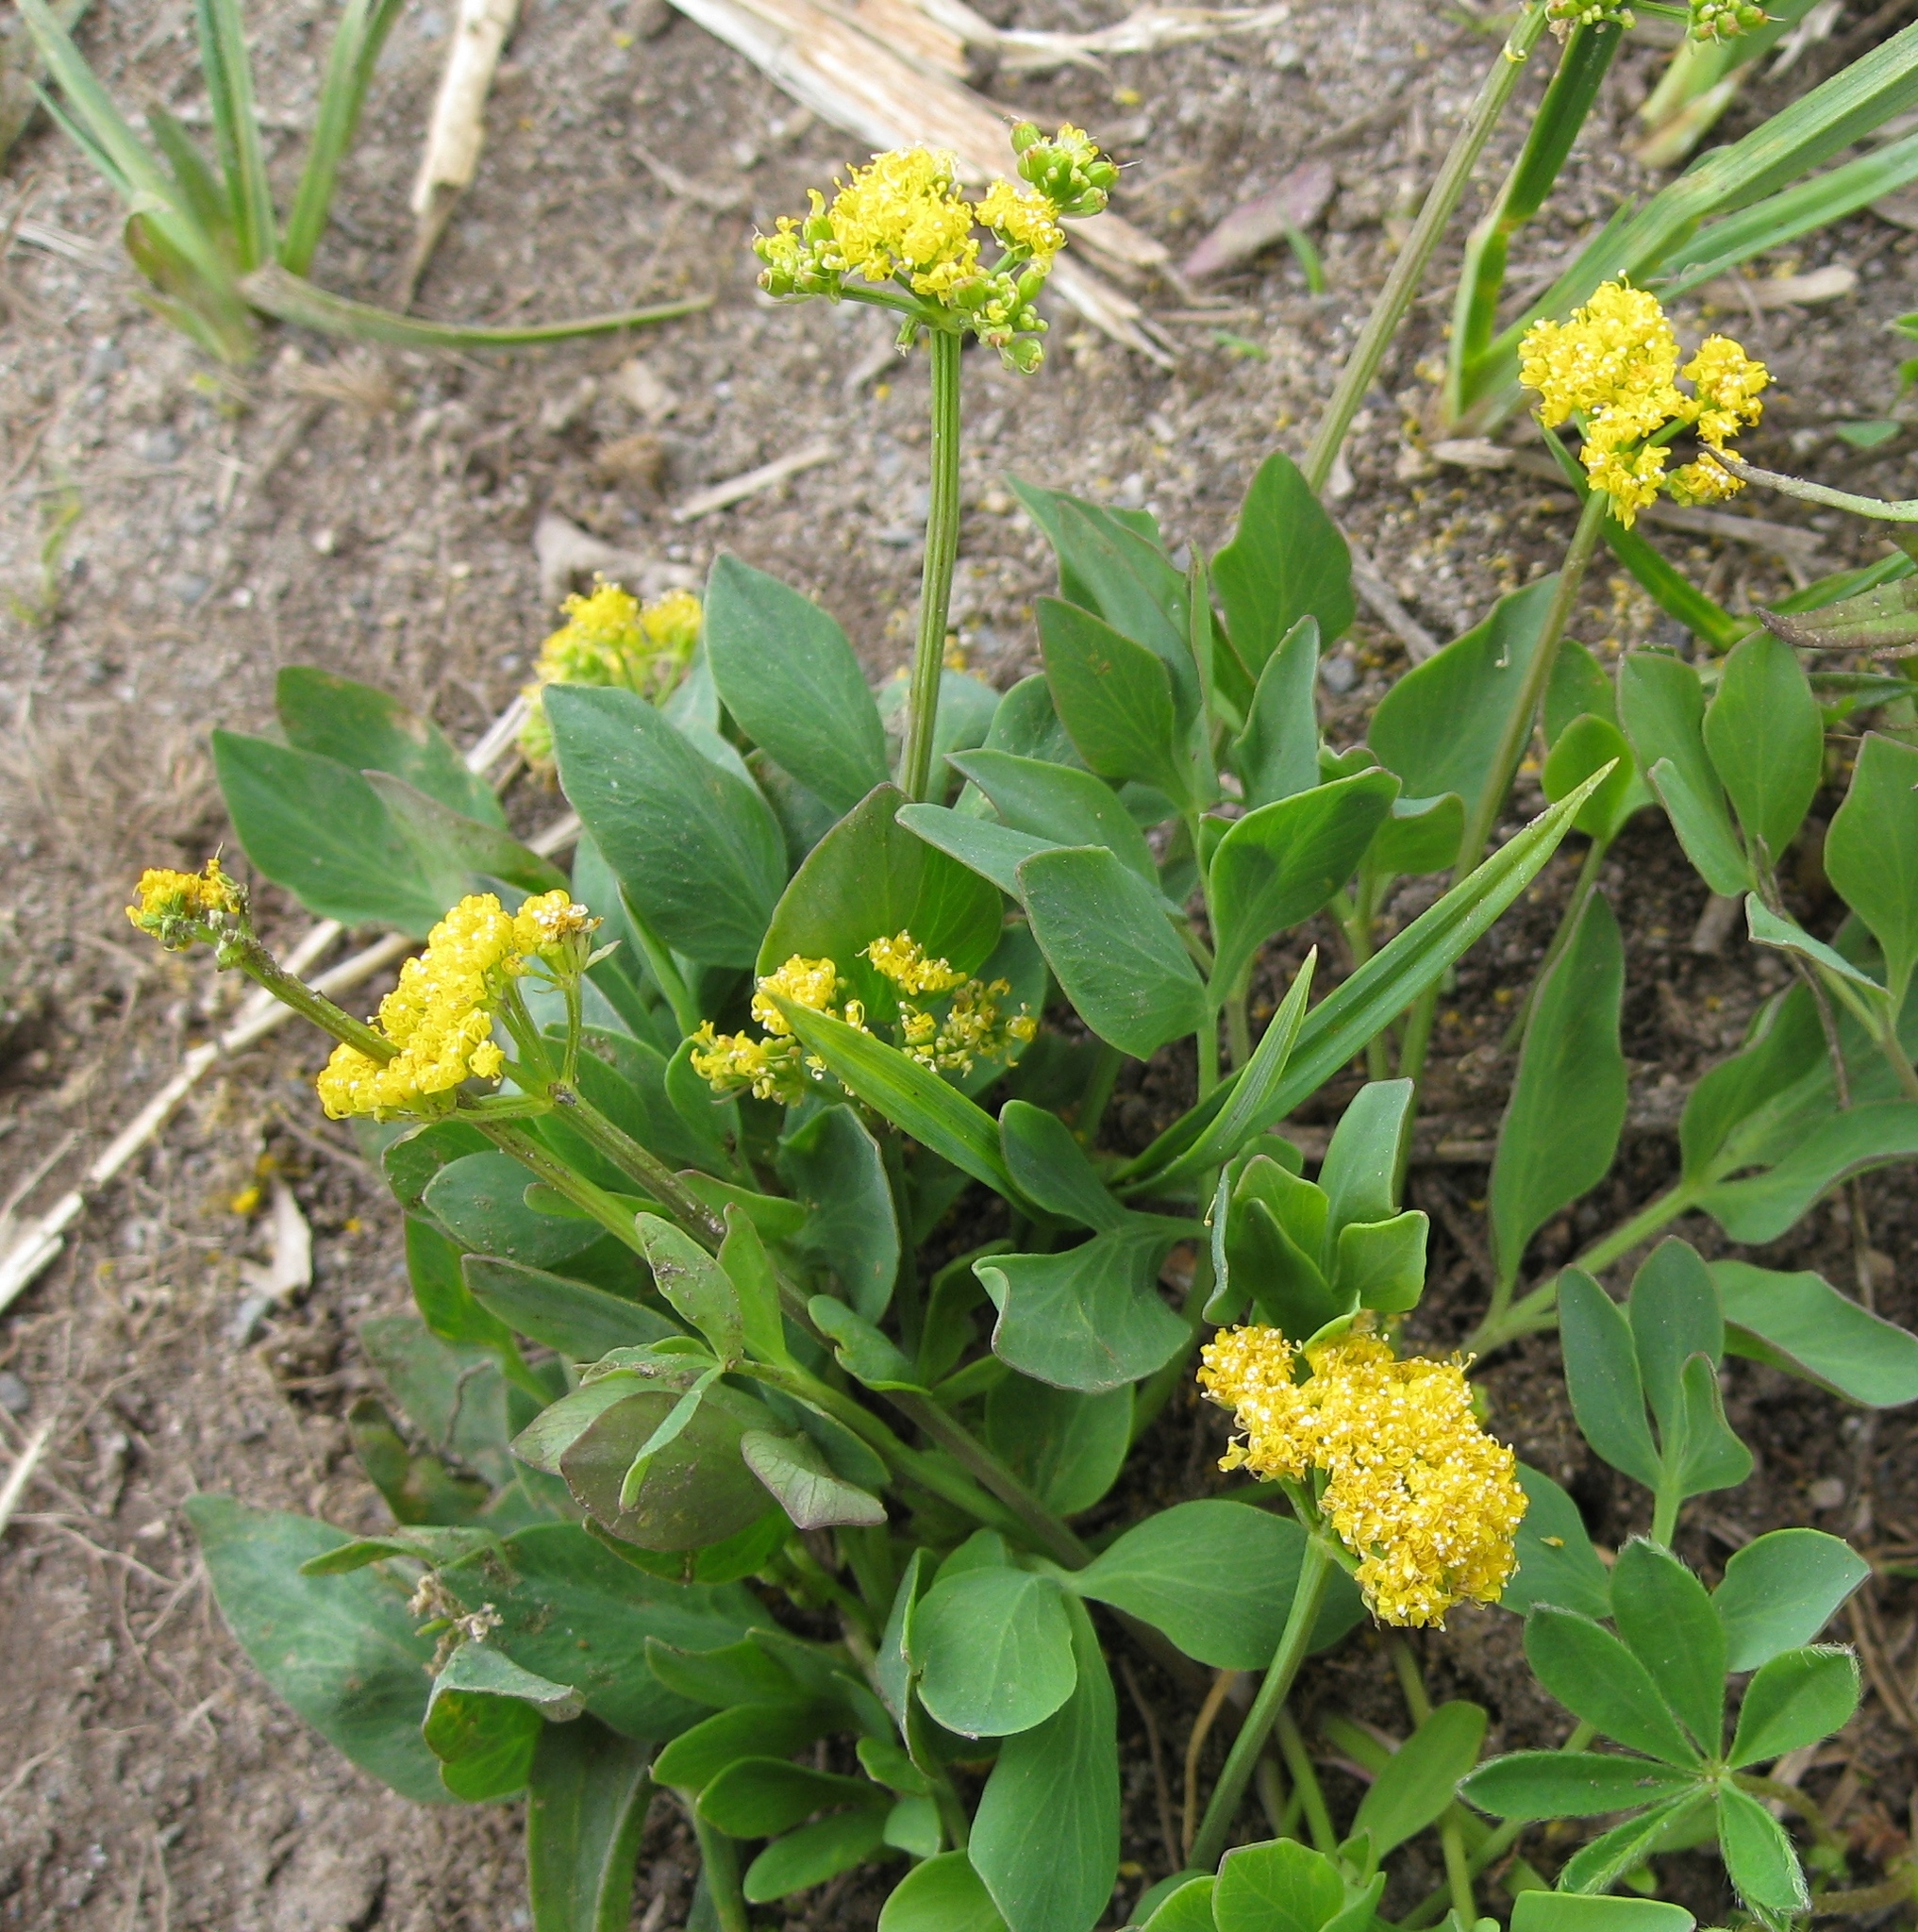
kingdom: Plantae
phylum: Tracheophyta
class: Magnoliopsida
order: Apiales
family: Apiaceae
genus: Tauschia
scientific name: Tauschia stricklandii
